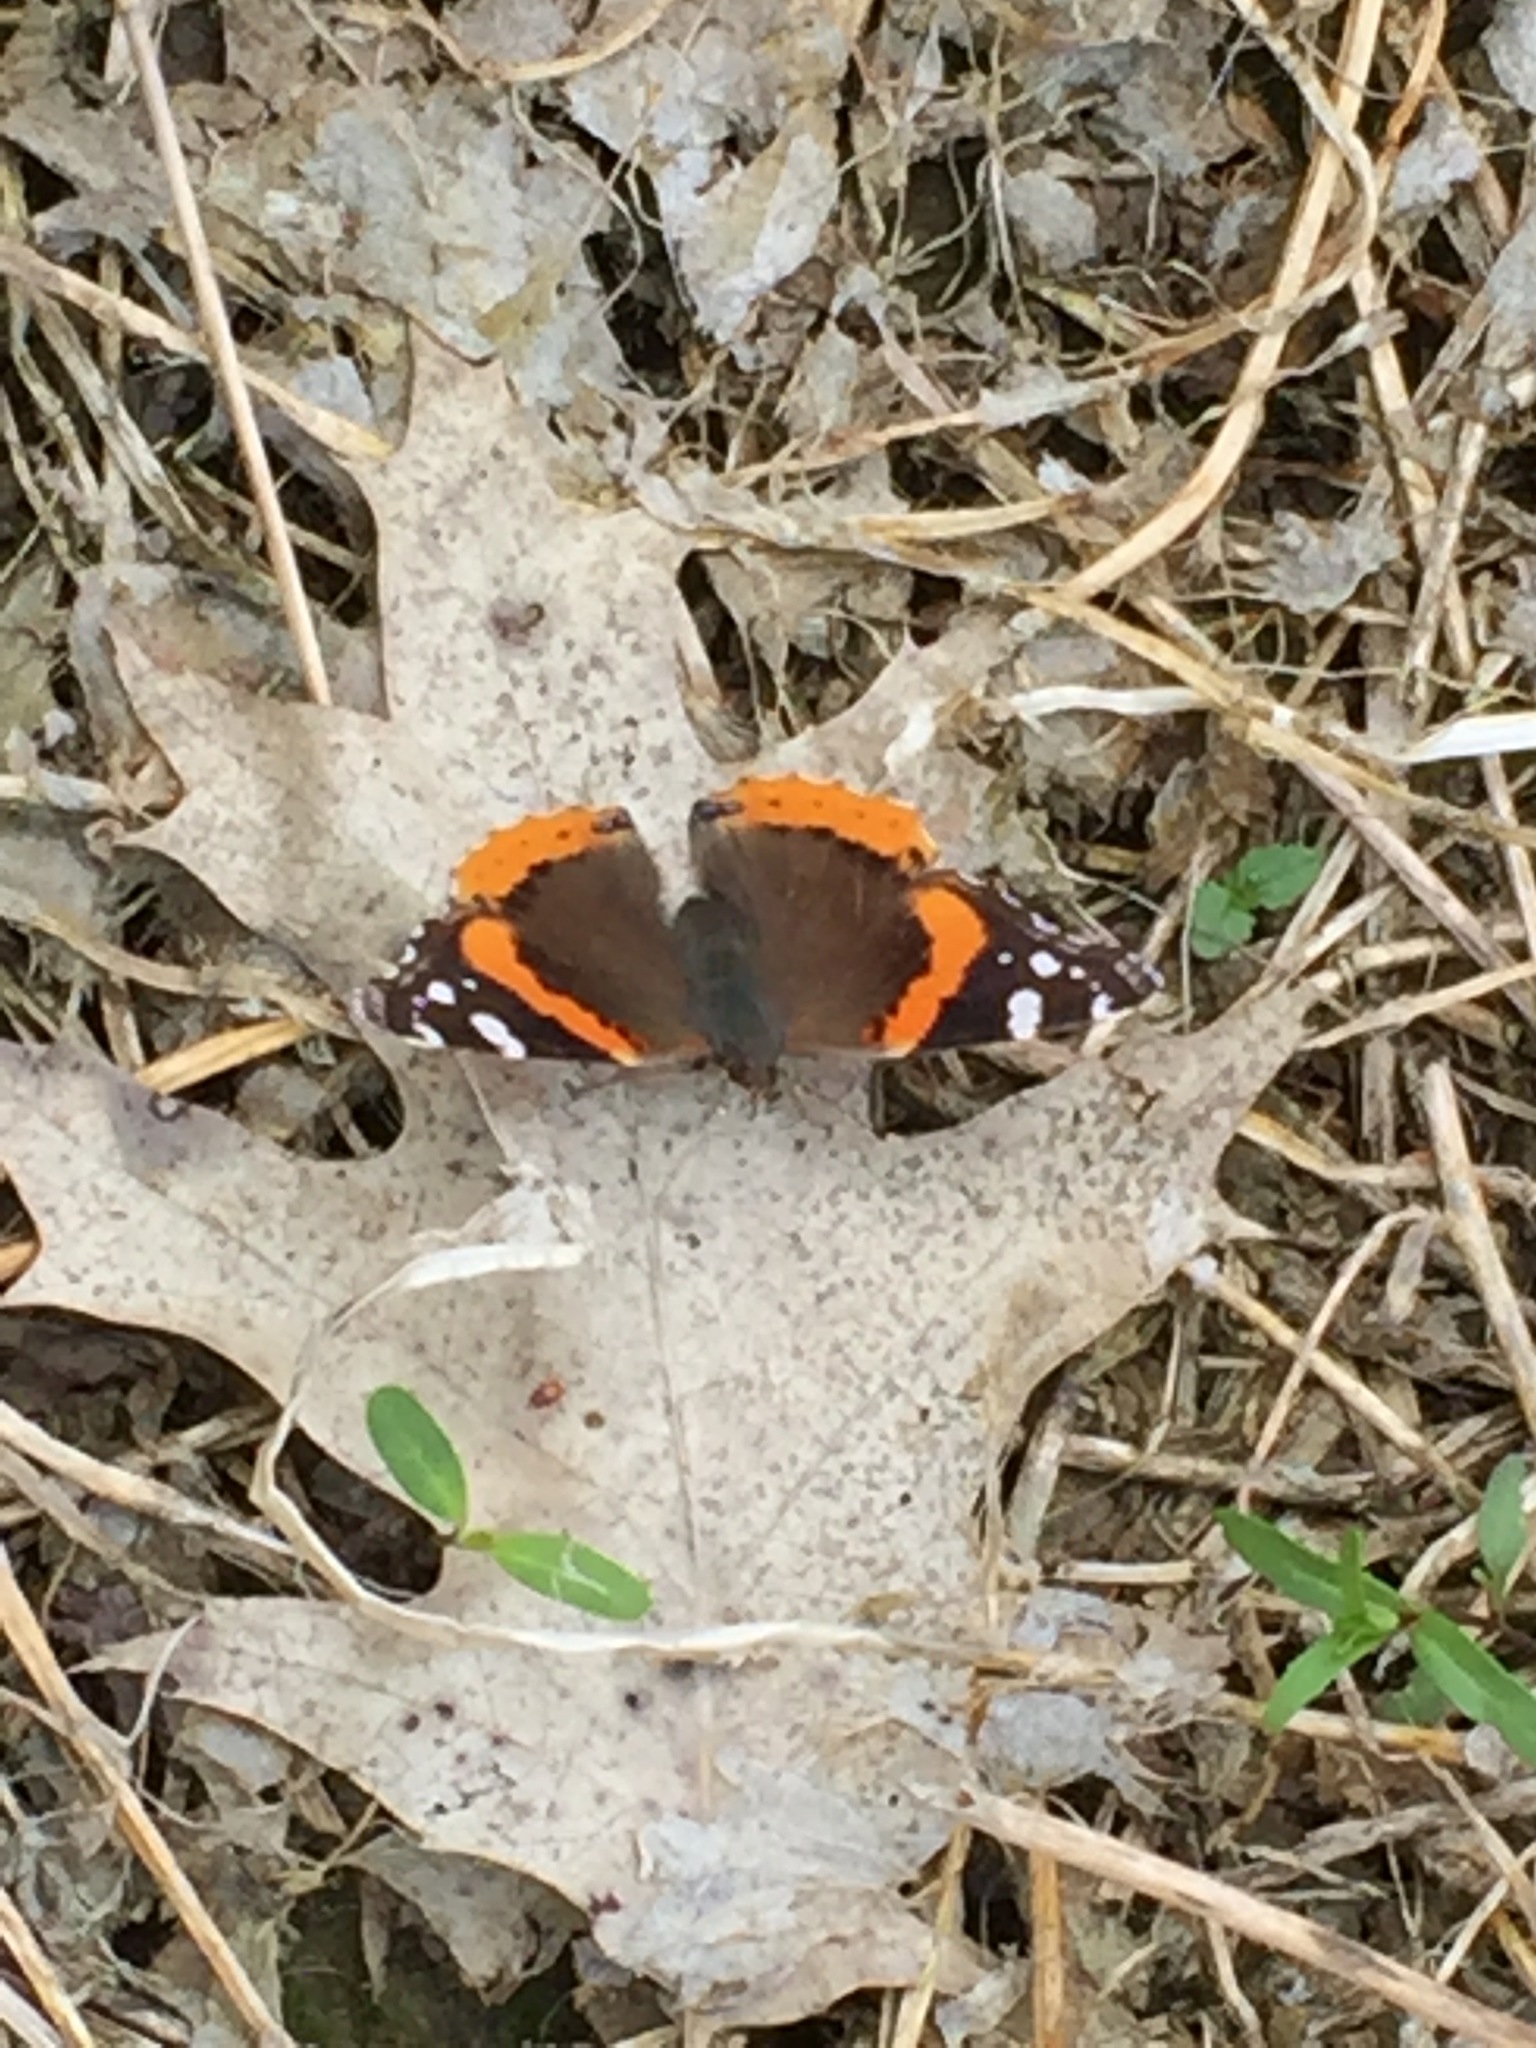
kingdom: Animalia
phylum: Arthropoda
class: Insecta
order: Lepidoptera
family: Nymphalidae
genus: Vanessa
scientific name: Vanessa atalanta
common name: Red admiral
